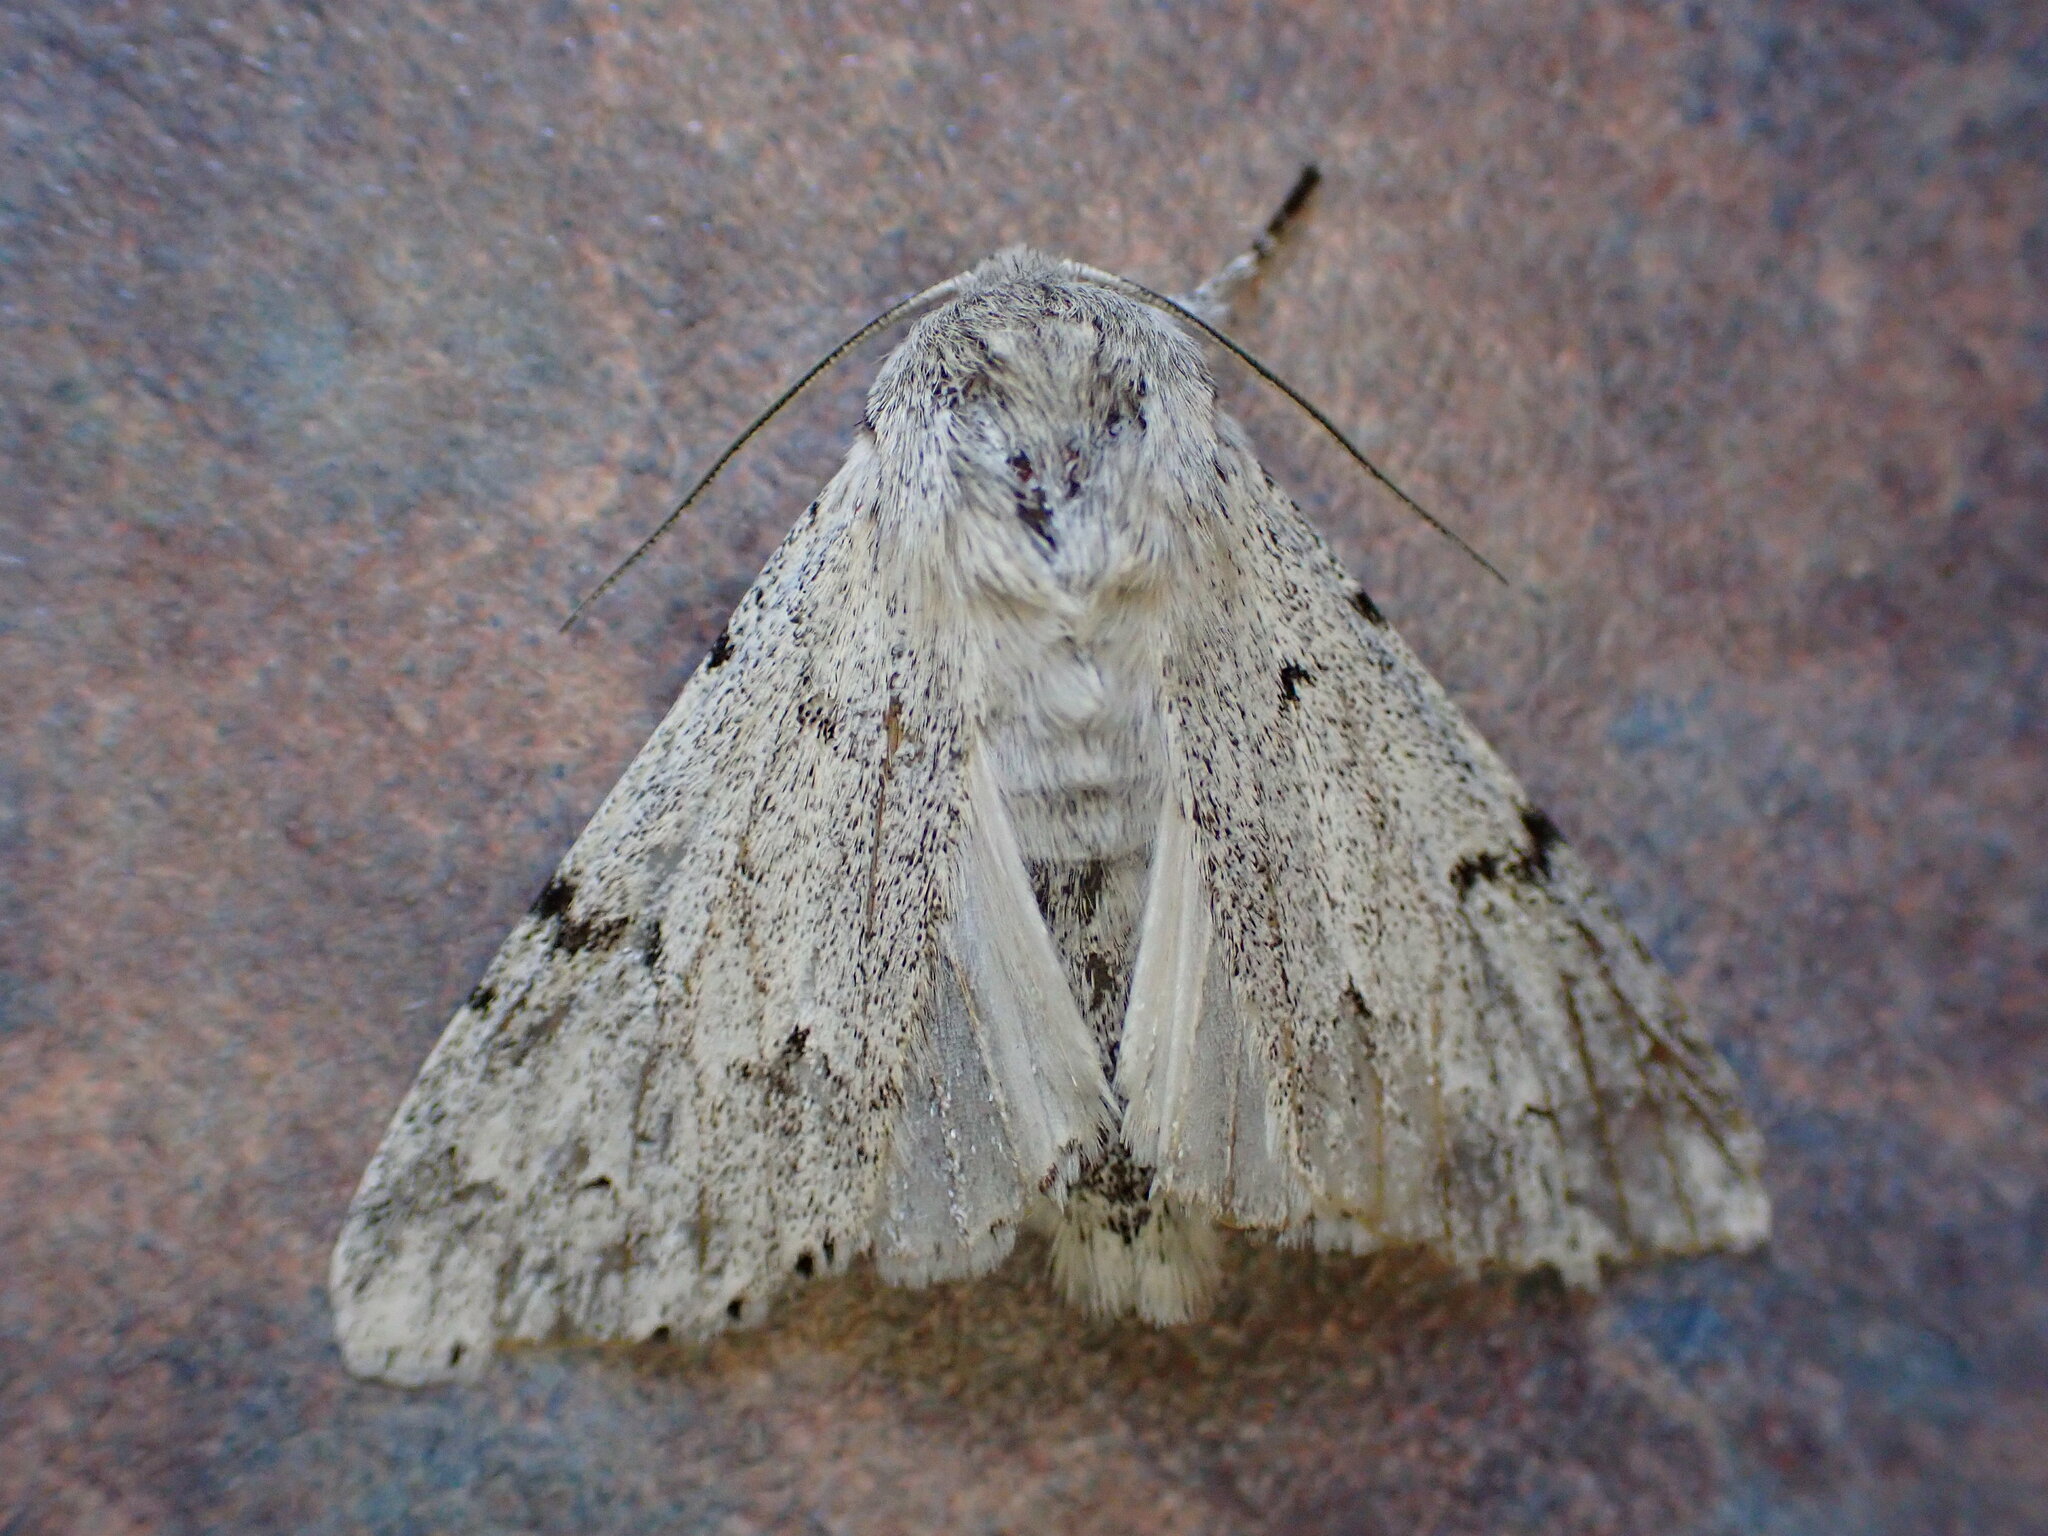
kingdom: Animalia
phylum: Arthropoda
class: Insecta
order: Lepidoptera
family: Noctuidae
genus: Acronicta
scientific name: Acronicta leporina
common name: Miller
